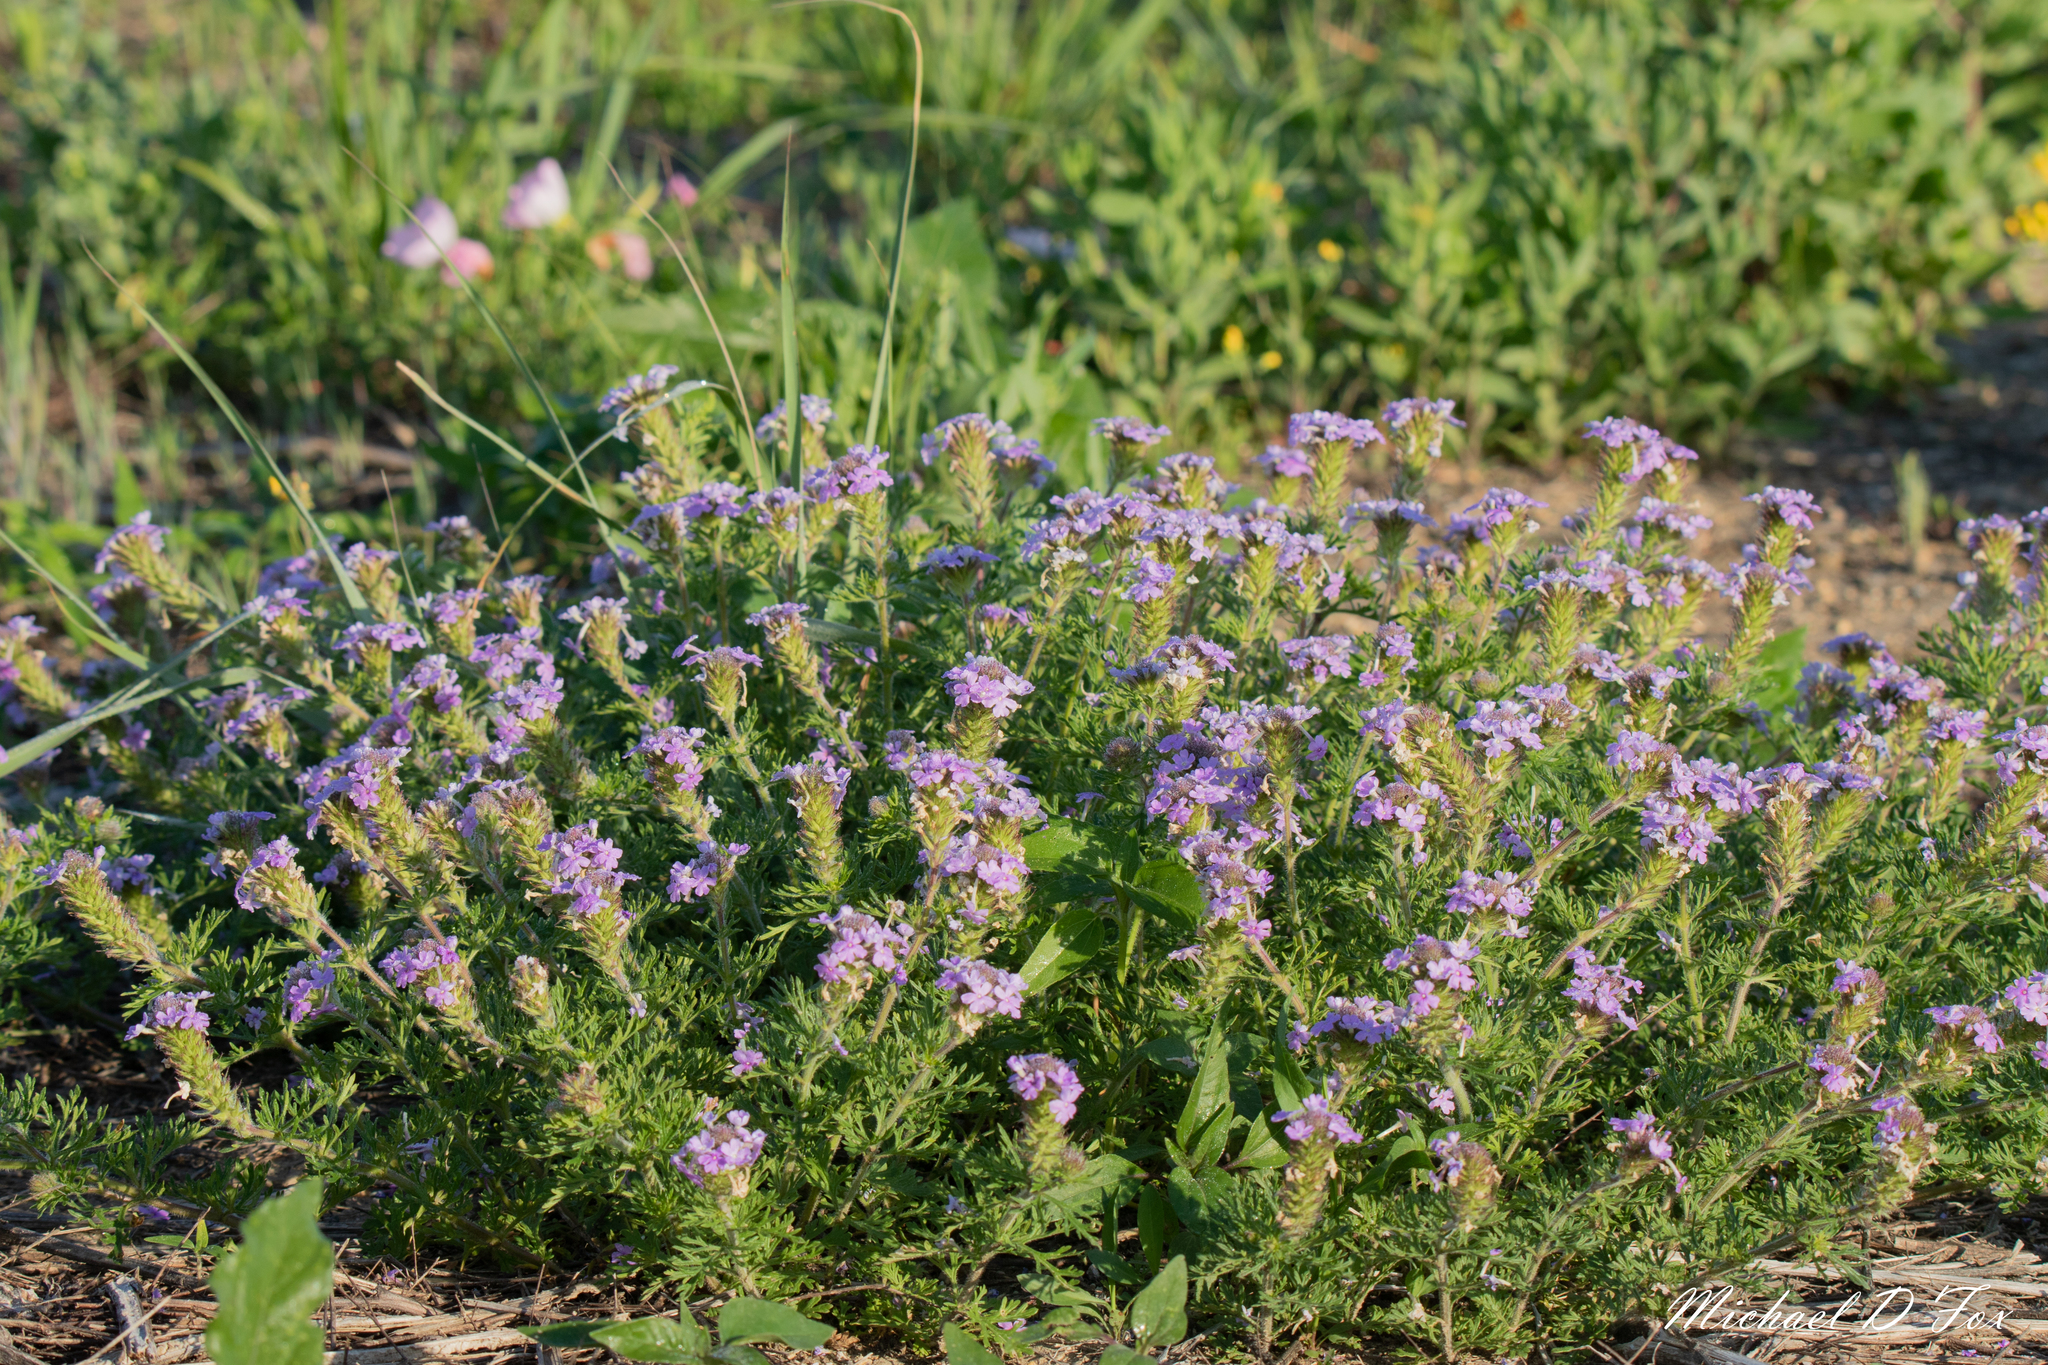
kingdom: Plantae
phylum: Tracheophyta
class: Magnoliopsida
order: Lamiales
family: Verbenaceae
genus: Verbena
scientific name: Verbena bipinnatifida
